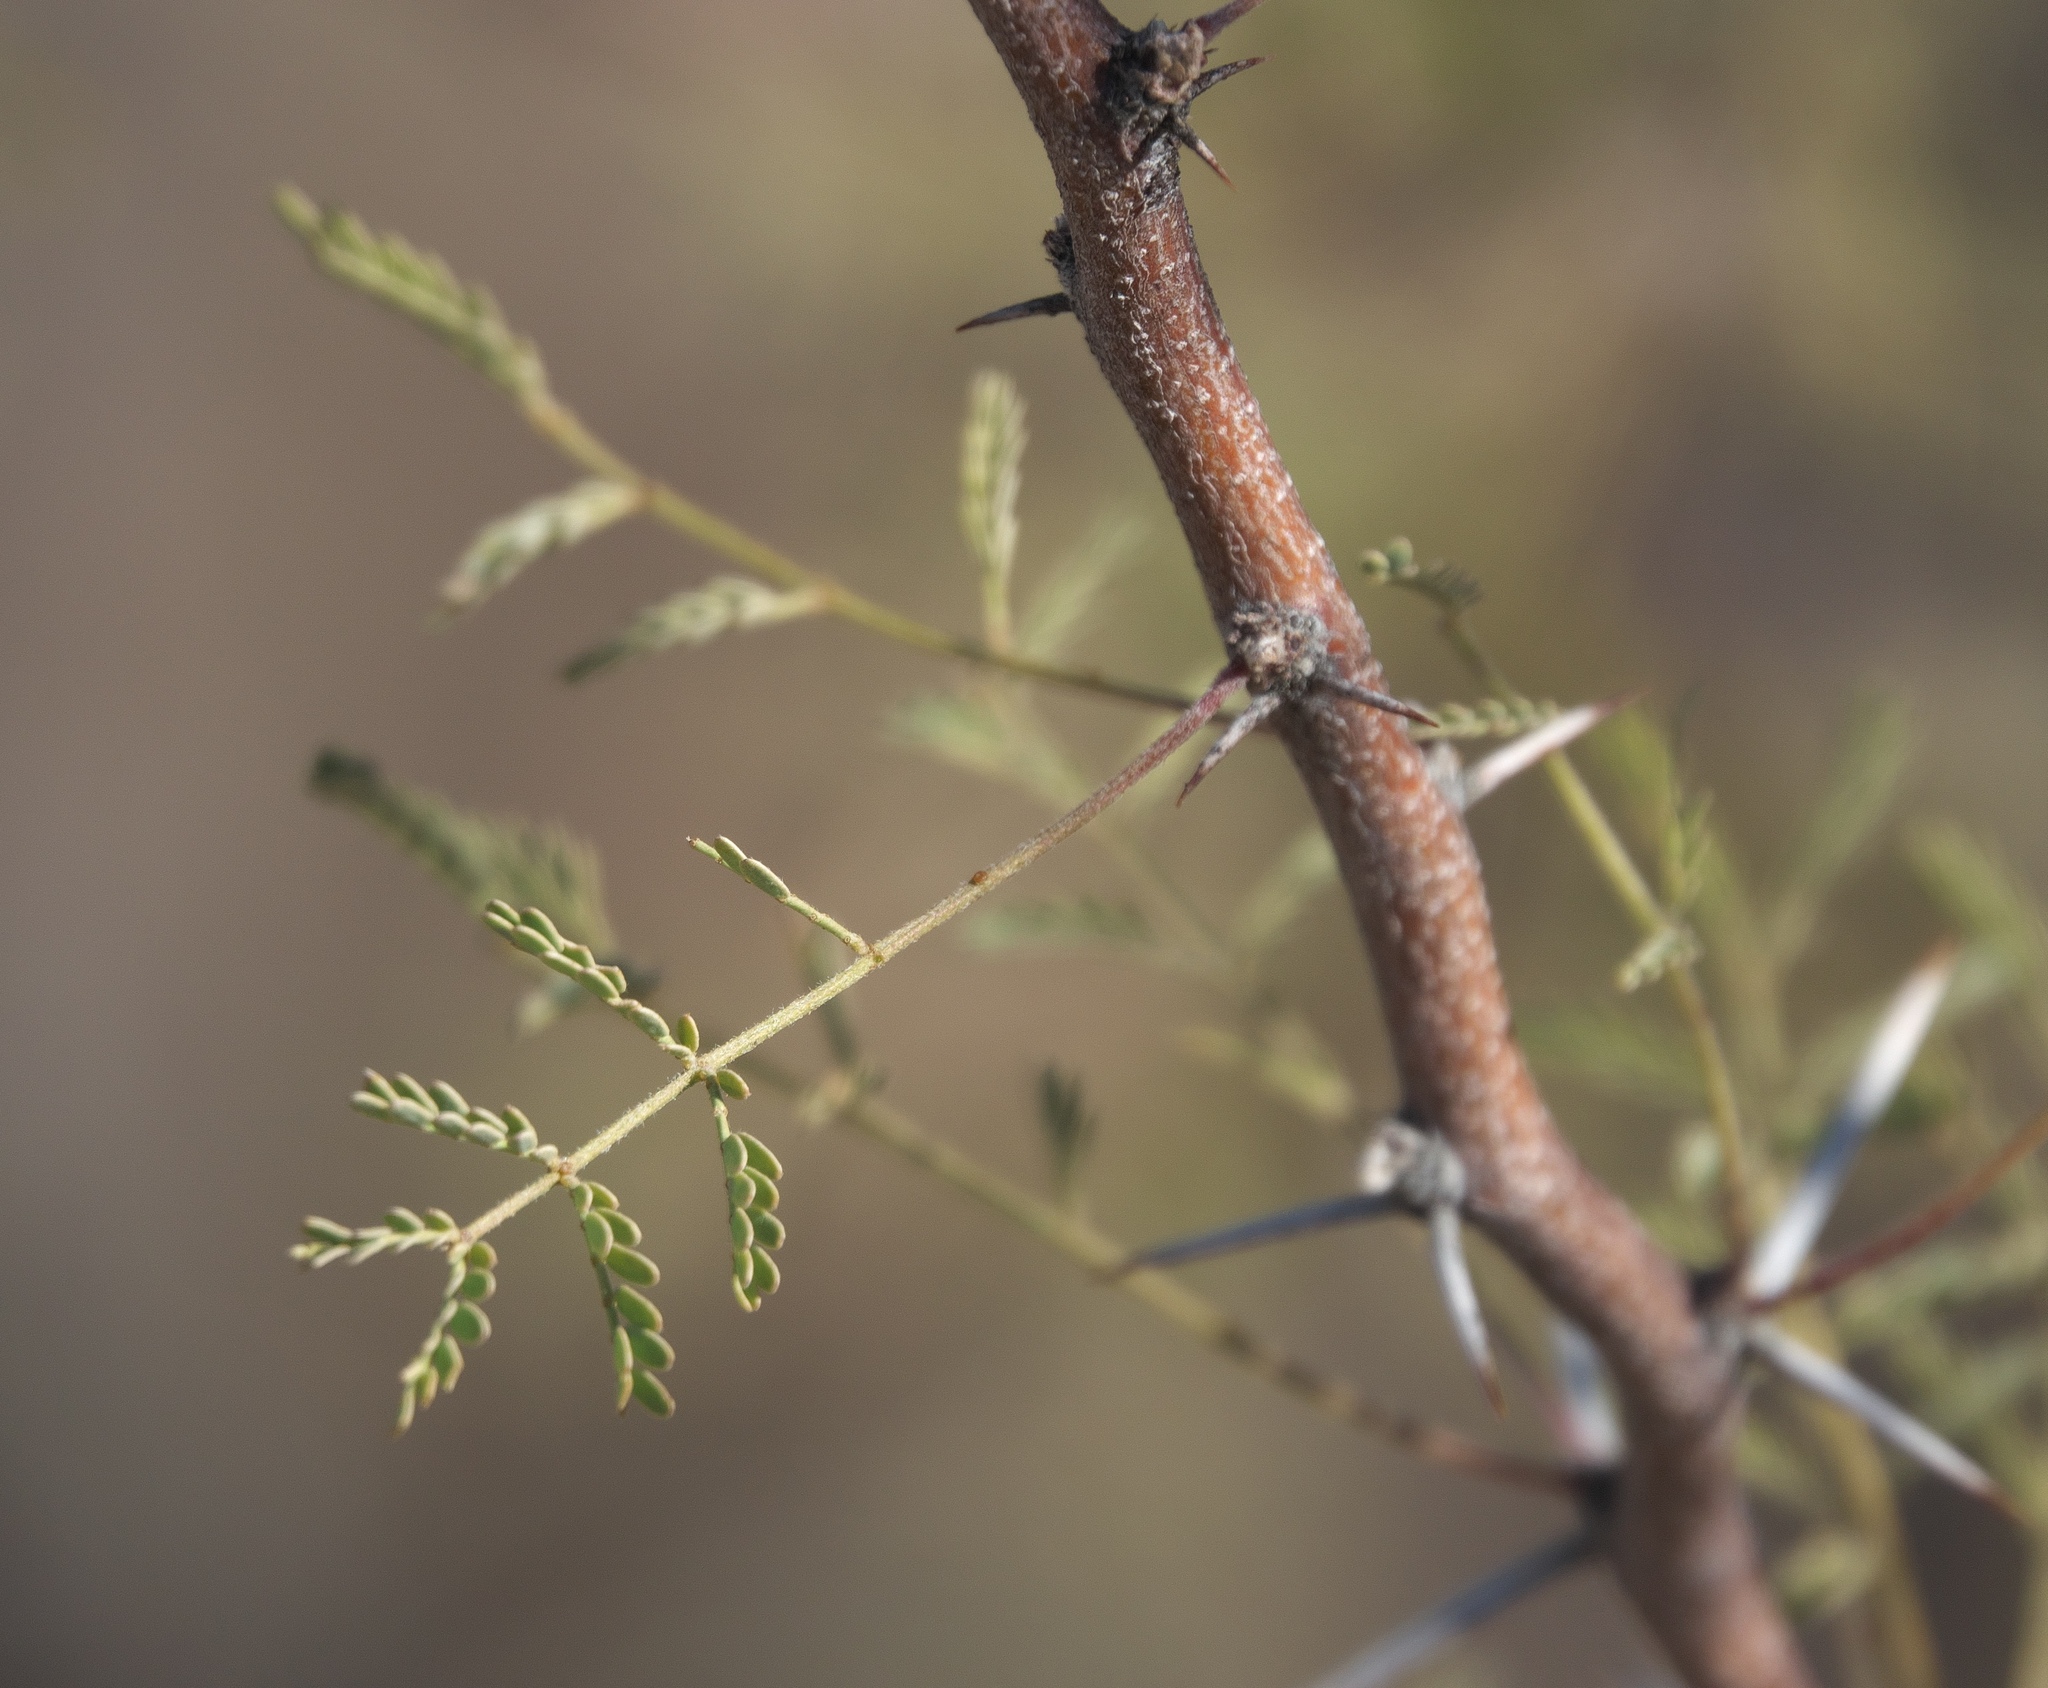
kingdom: Plantae
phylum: Tracheophyta
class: Magnoliopsida
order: Fabales
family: Fabaceae
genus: Vachellia
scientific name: Vachellia constricta
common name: Mescat acacia
